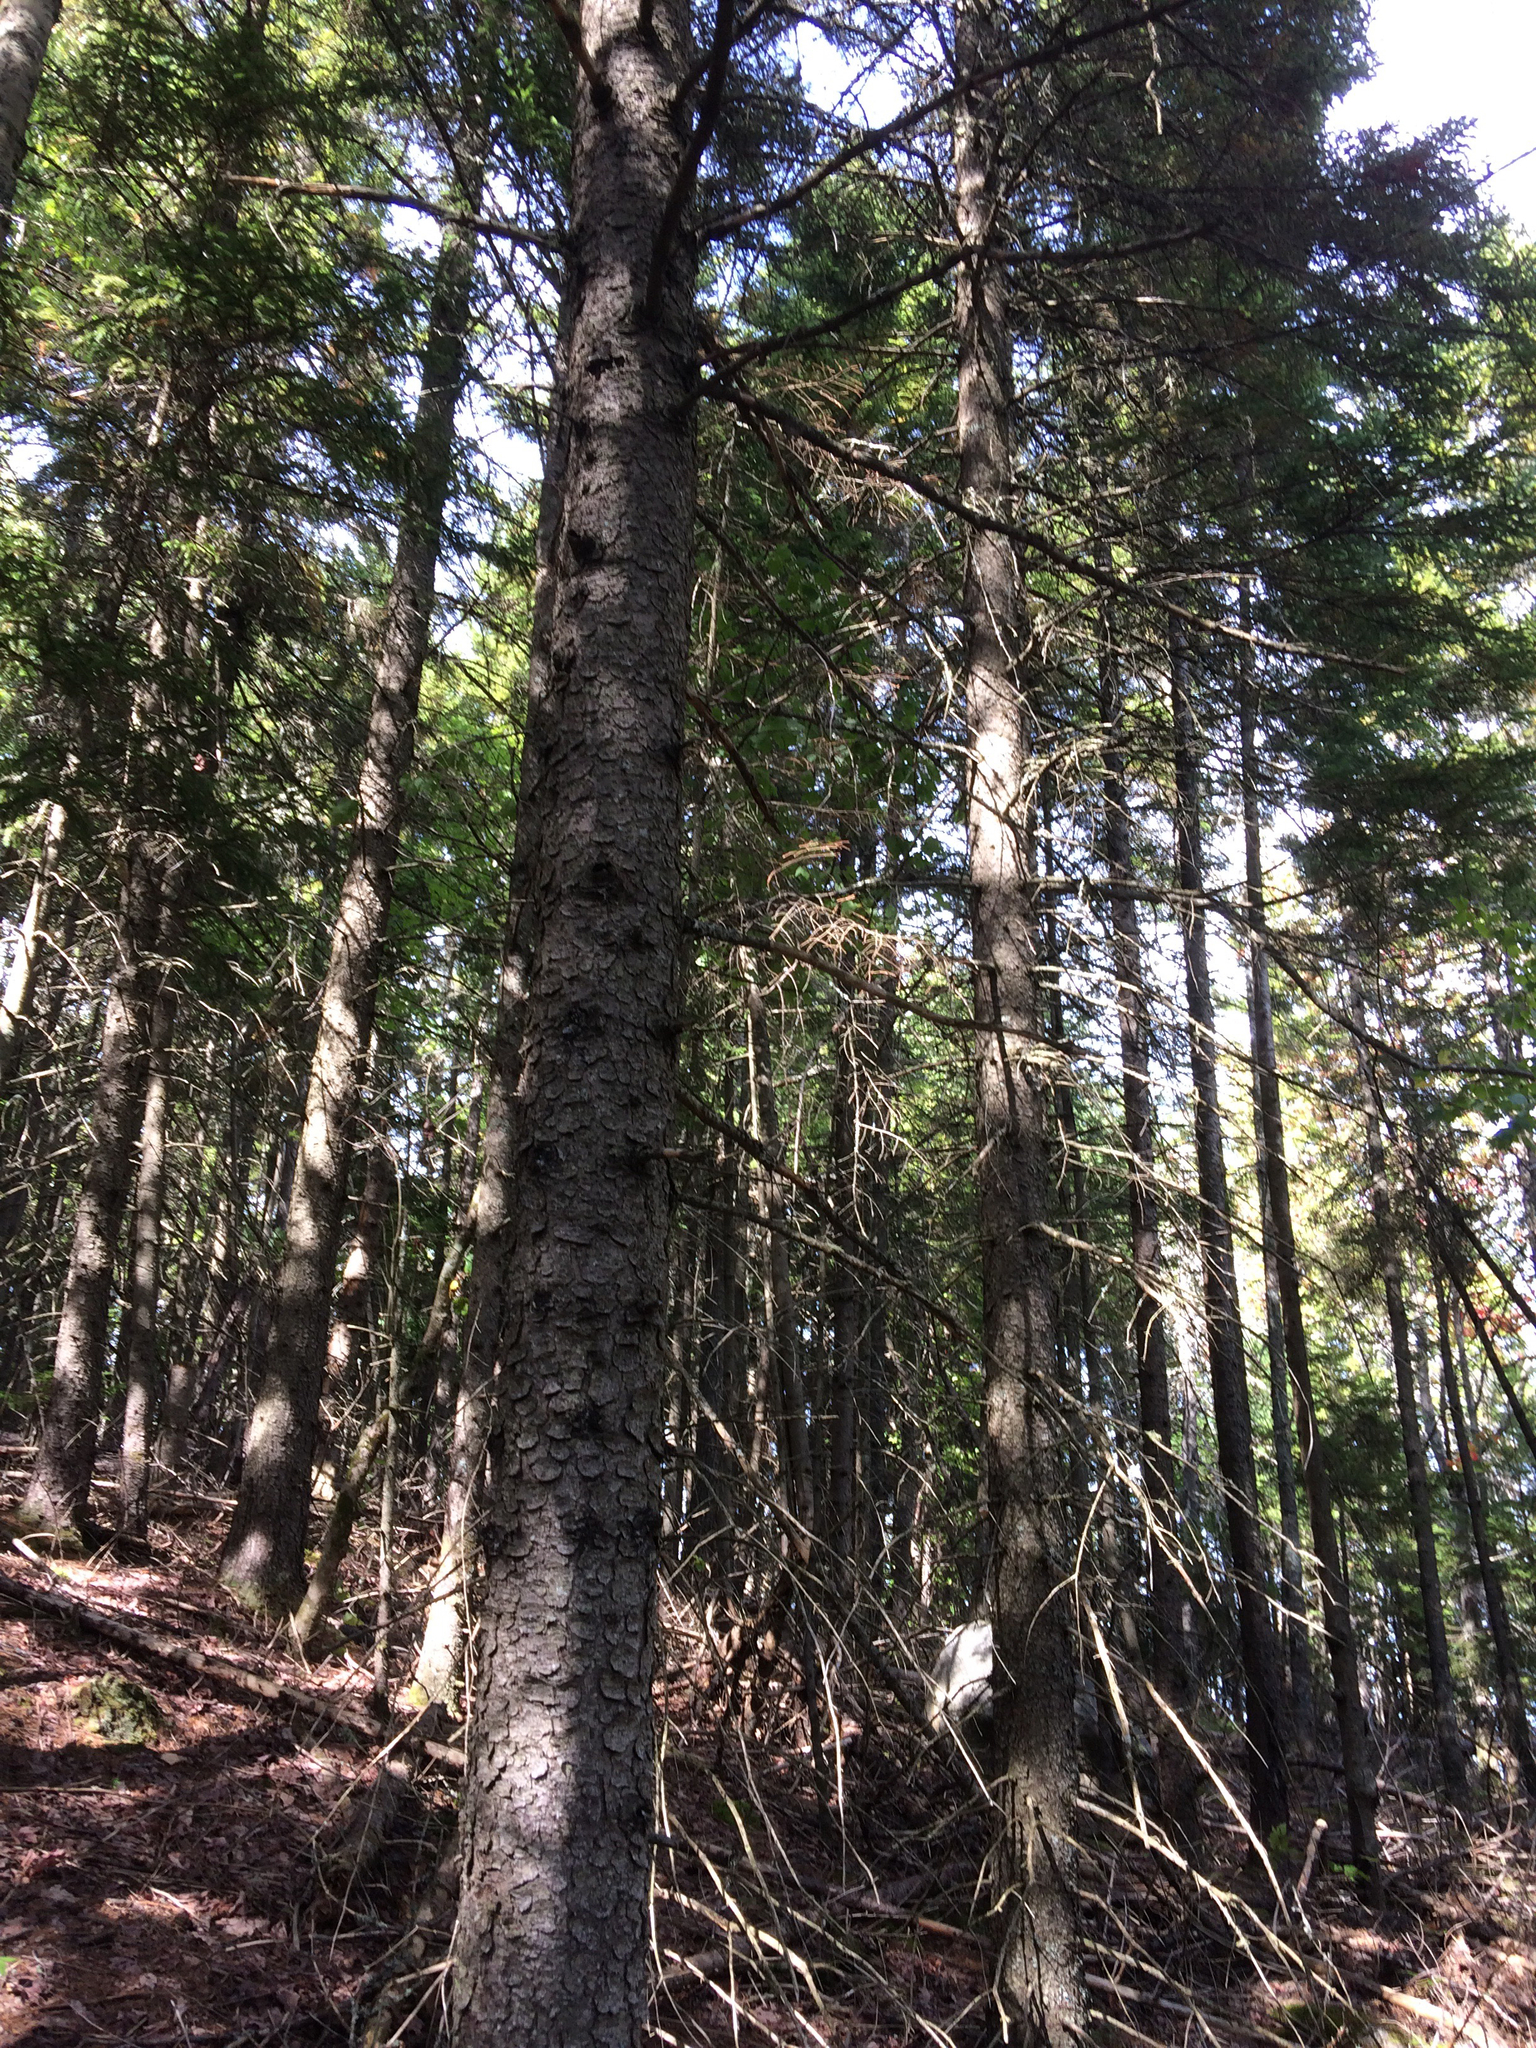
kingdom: Plantae
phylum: Tracheophyta
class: Pinopsida
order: Pinales
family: Pinaceae
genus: Picea
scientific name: Picea rubens
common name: Red spruce
